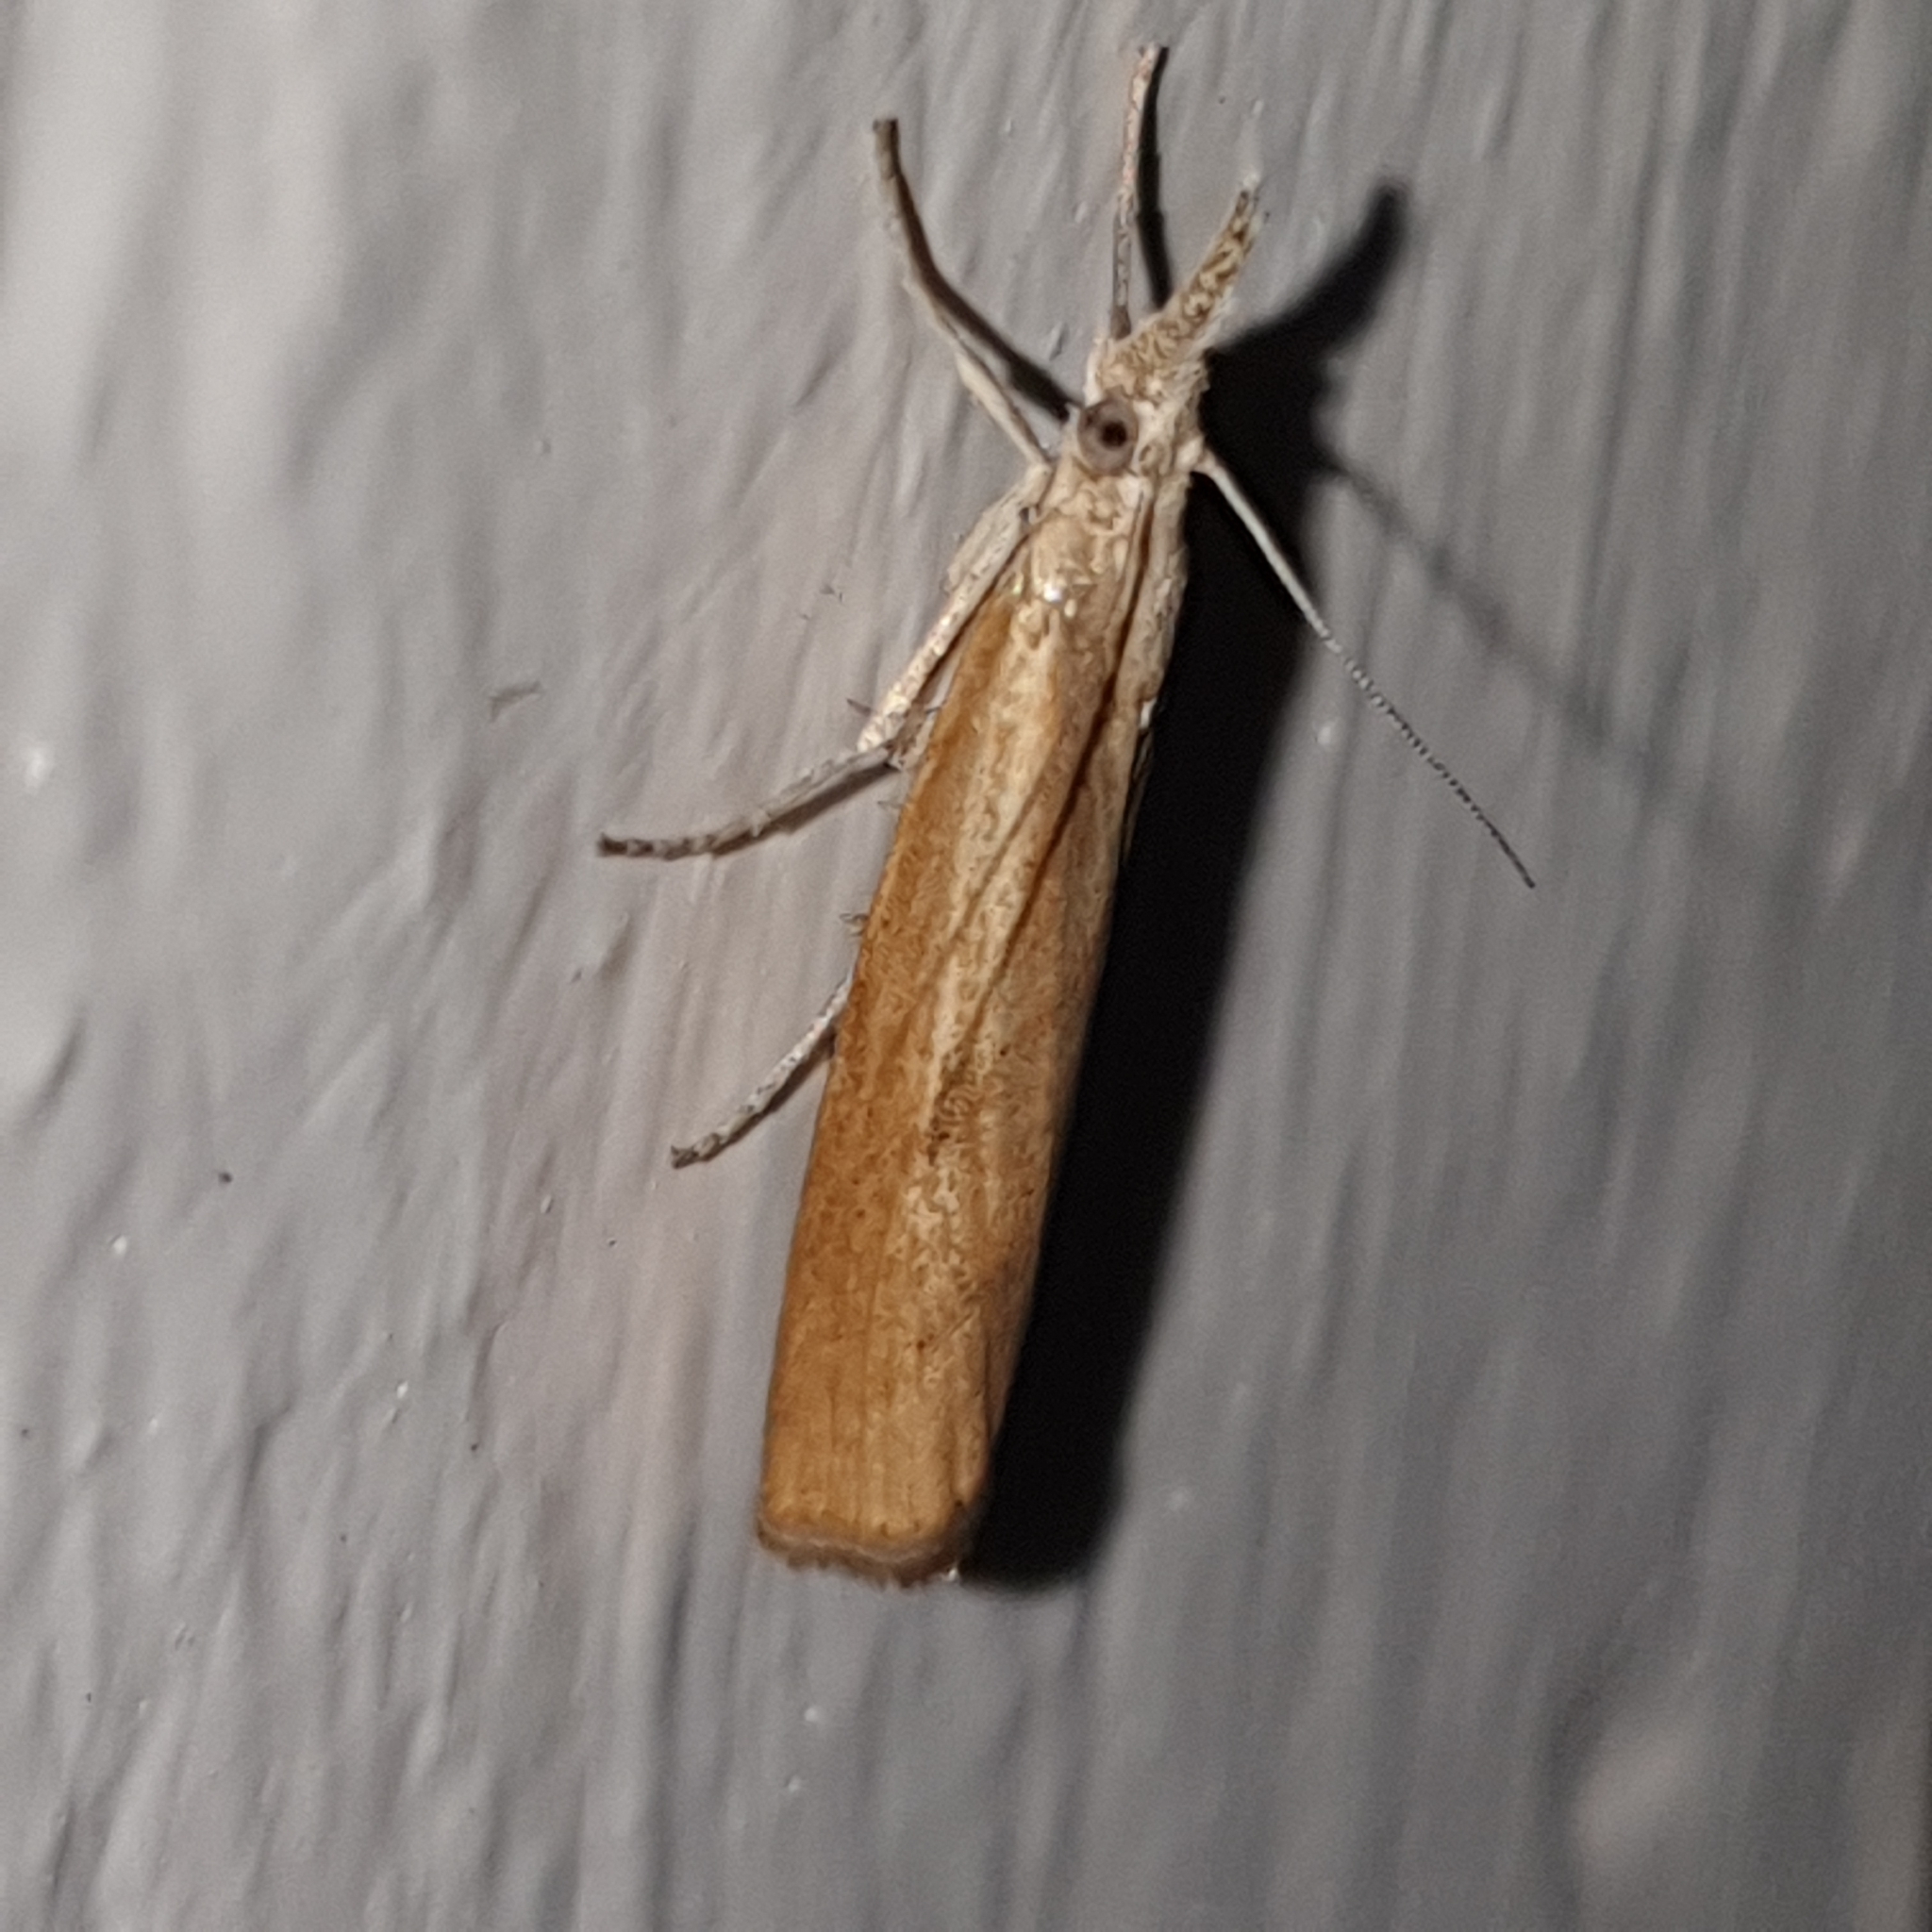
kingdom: Animalia
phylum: Arthropoda
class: Insecta
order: Lepidoptera
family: Crambidae
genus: Agriphila
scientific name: Agriphila tristellus
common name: Common grass-veneer
